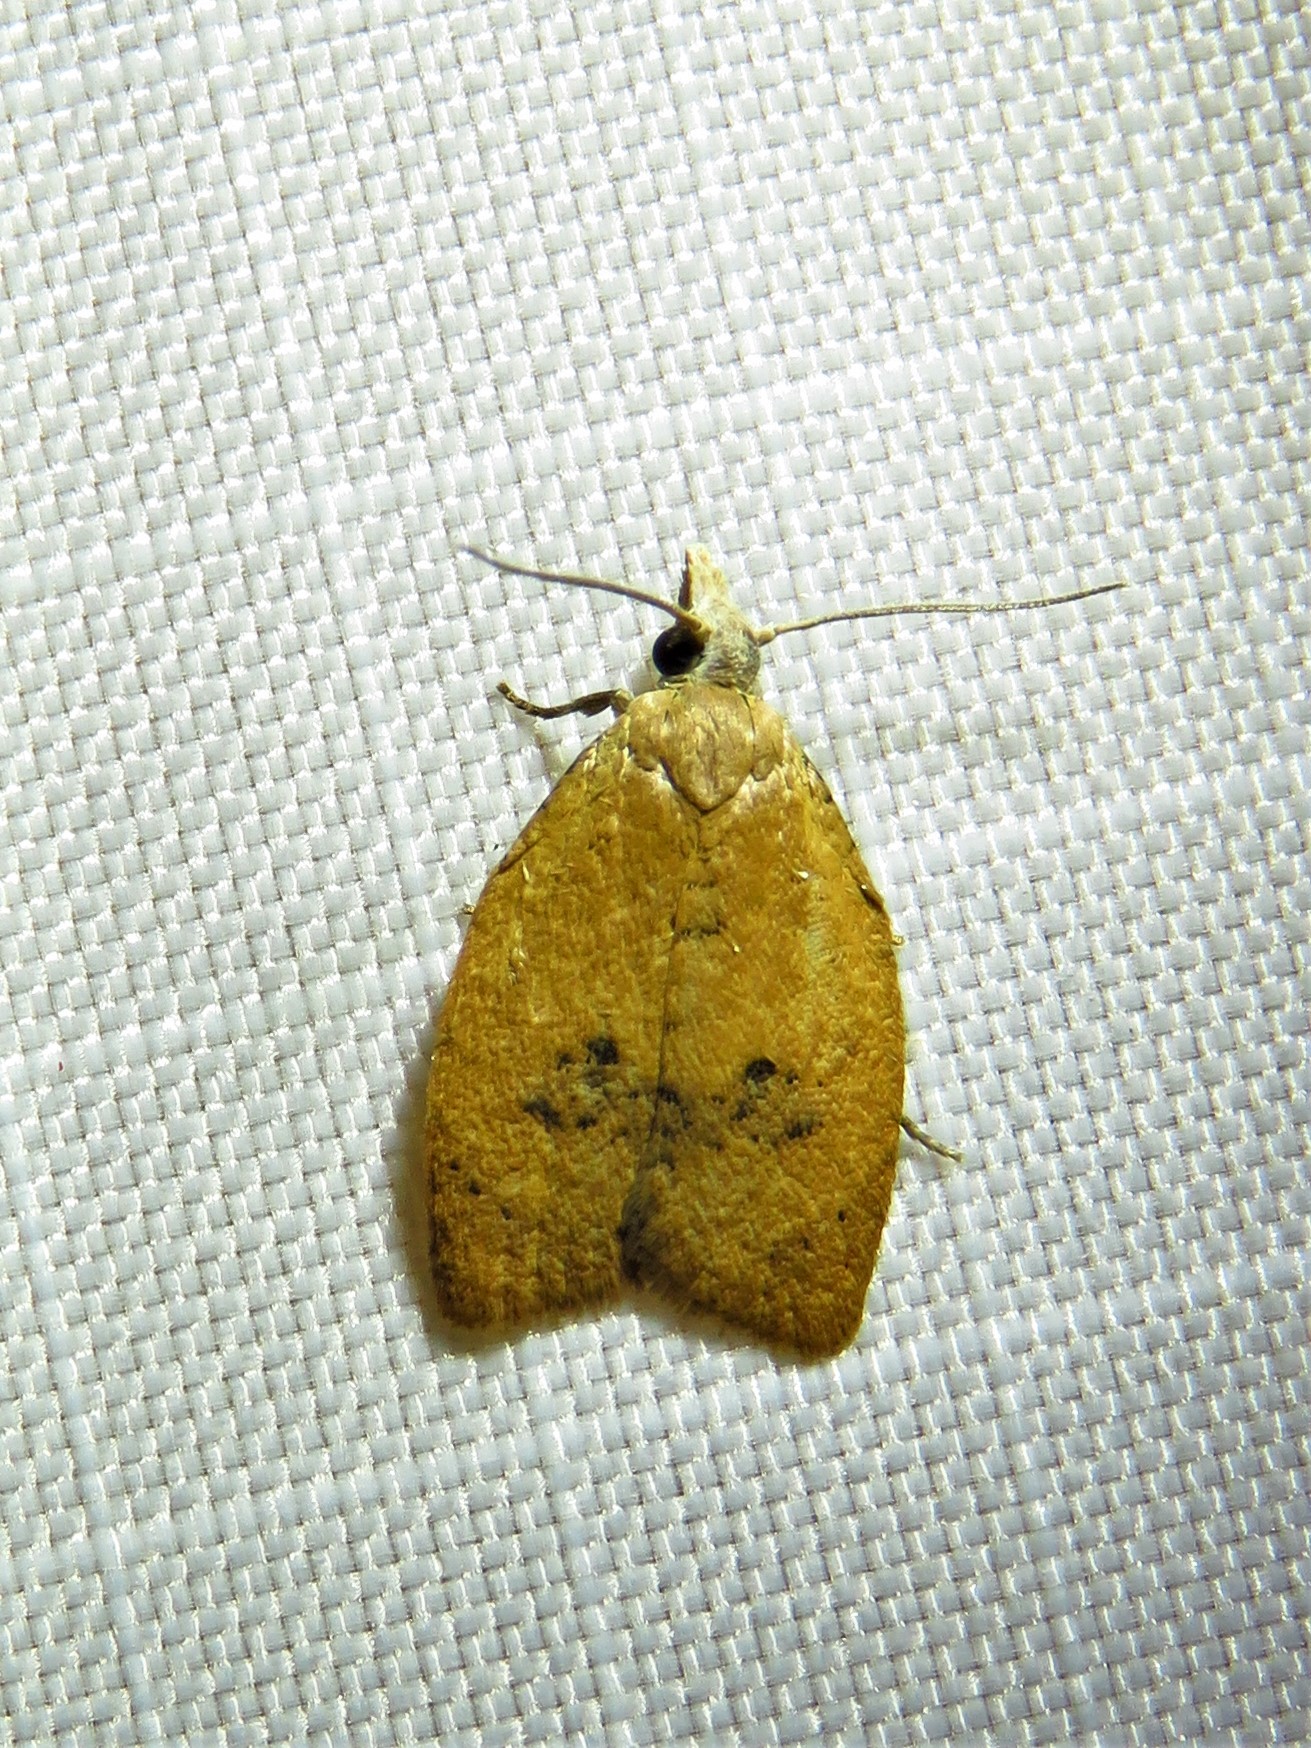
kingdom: Animalia
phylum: Arthropoda
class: Insecta
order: Lepidoptera
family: Tortricidae
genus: Sparganothoides
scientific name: Sparganothoides lentiginosana
